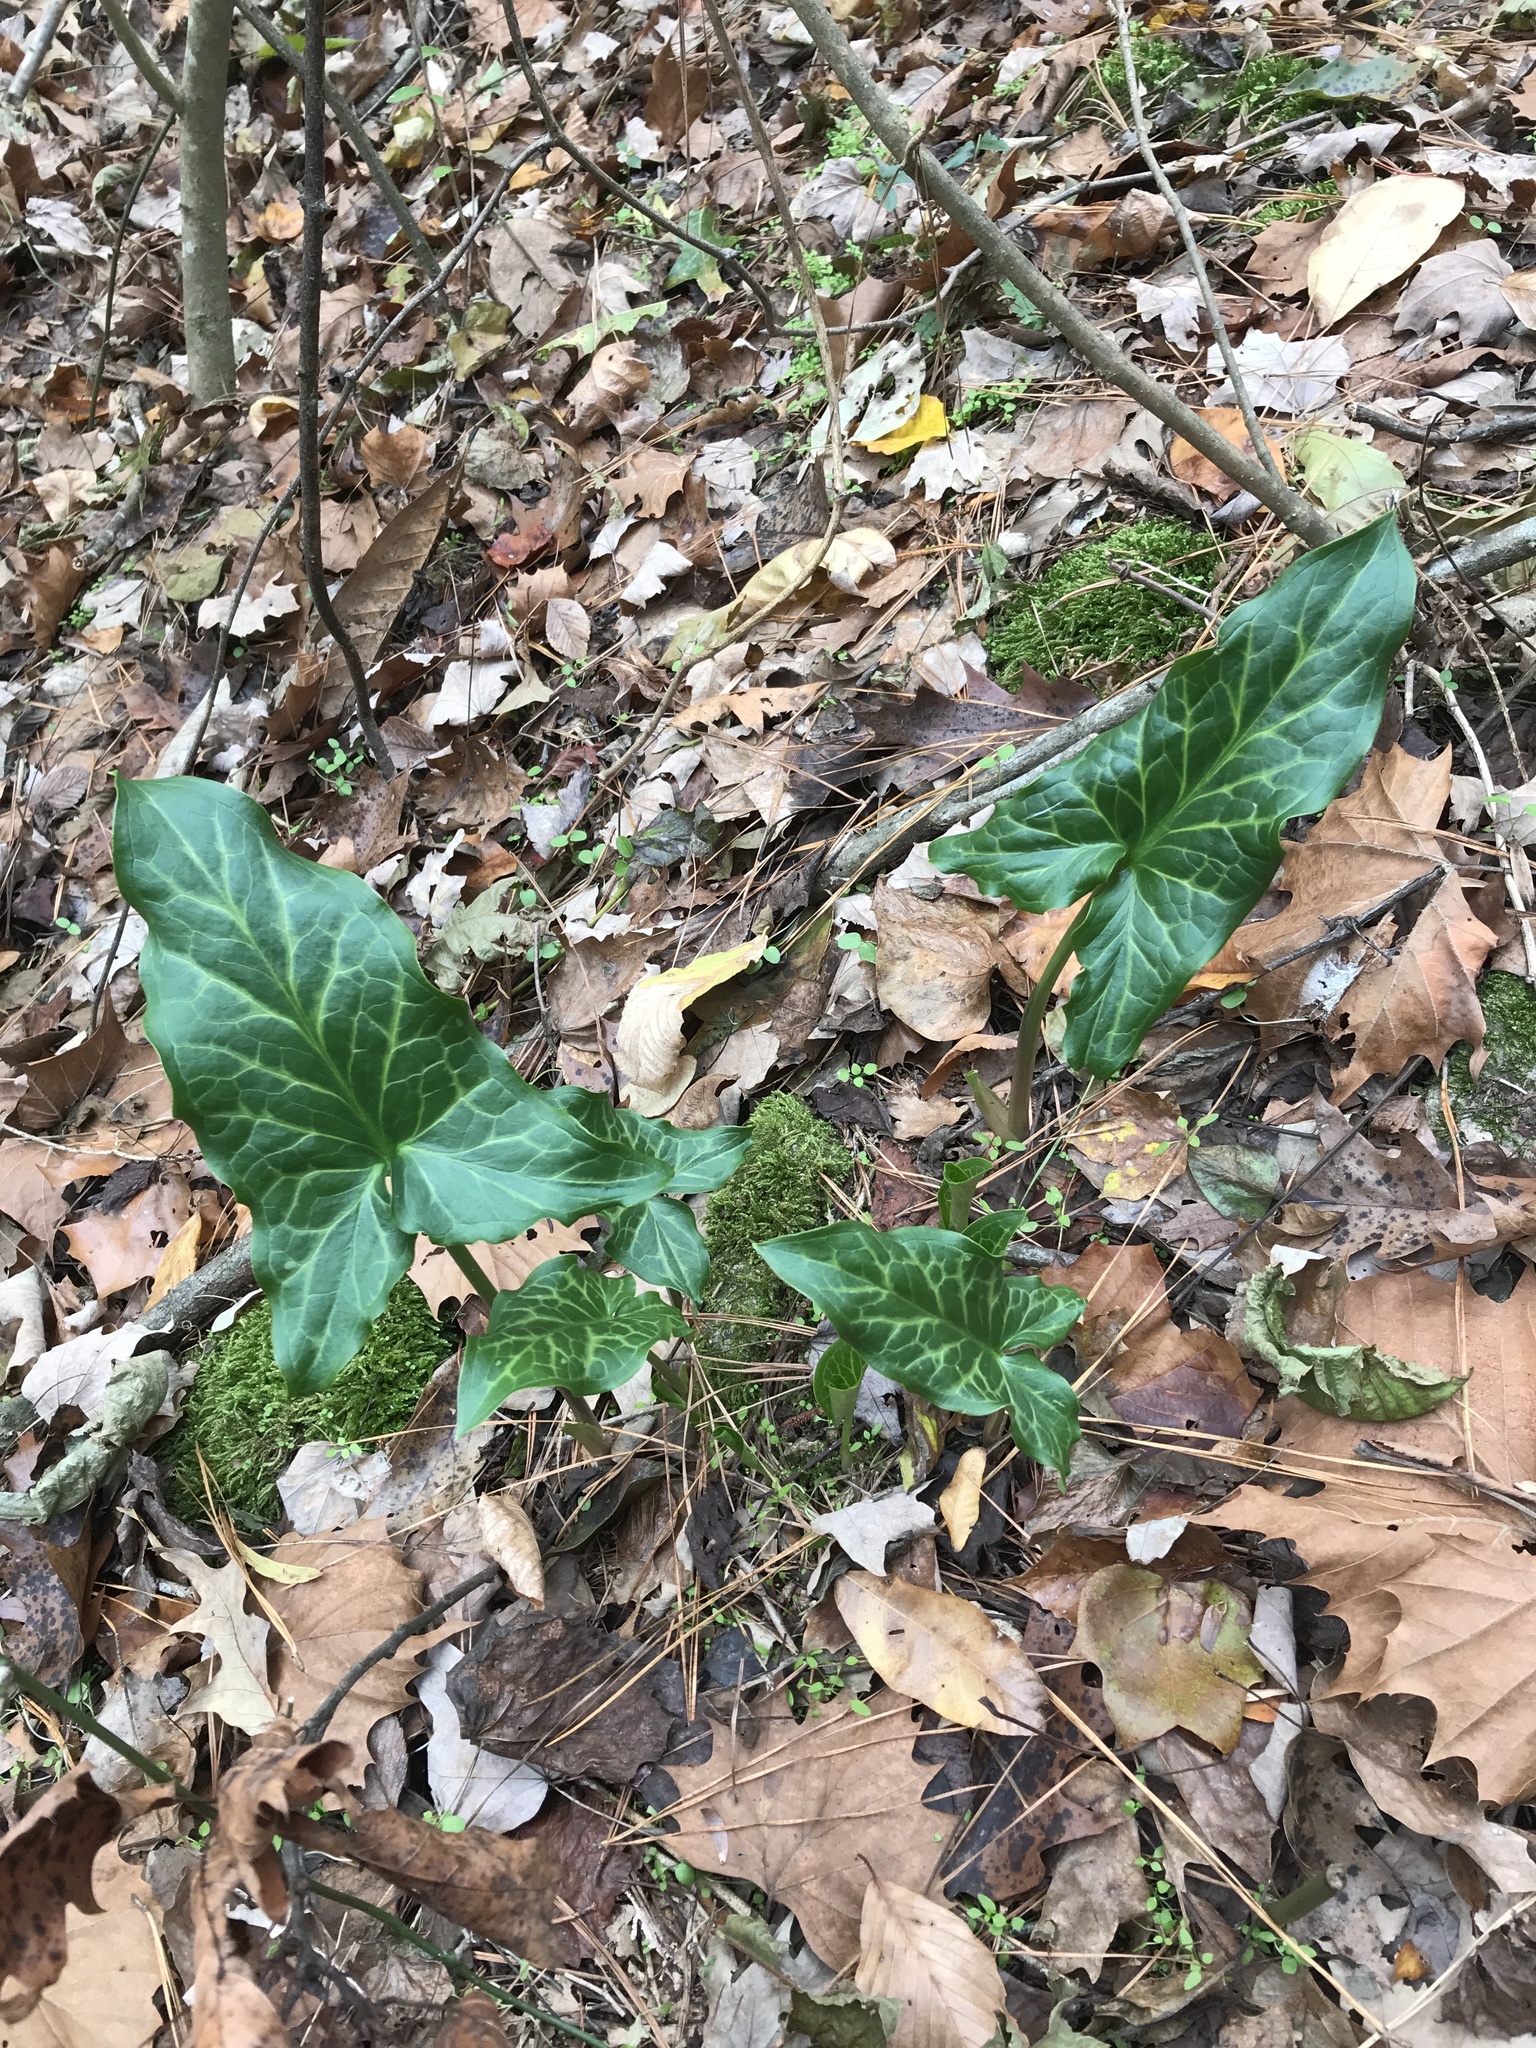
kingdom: Plantae
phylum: Tracheophyta
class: Liliopsida
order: Alismatales
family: Araceae
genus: Arum
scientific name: Arum italicum
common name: Italian lords-and-ladies
